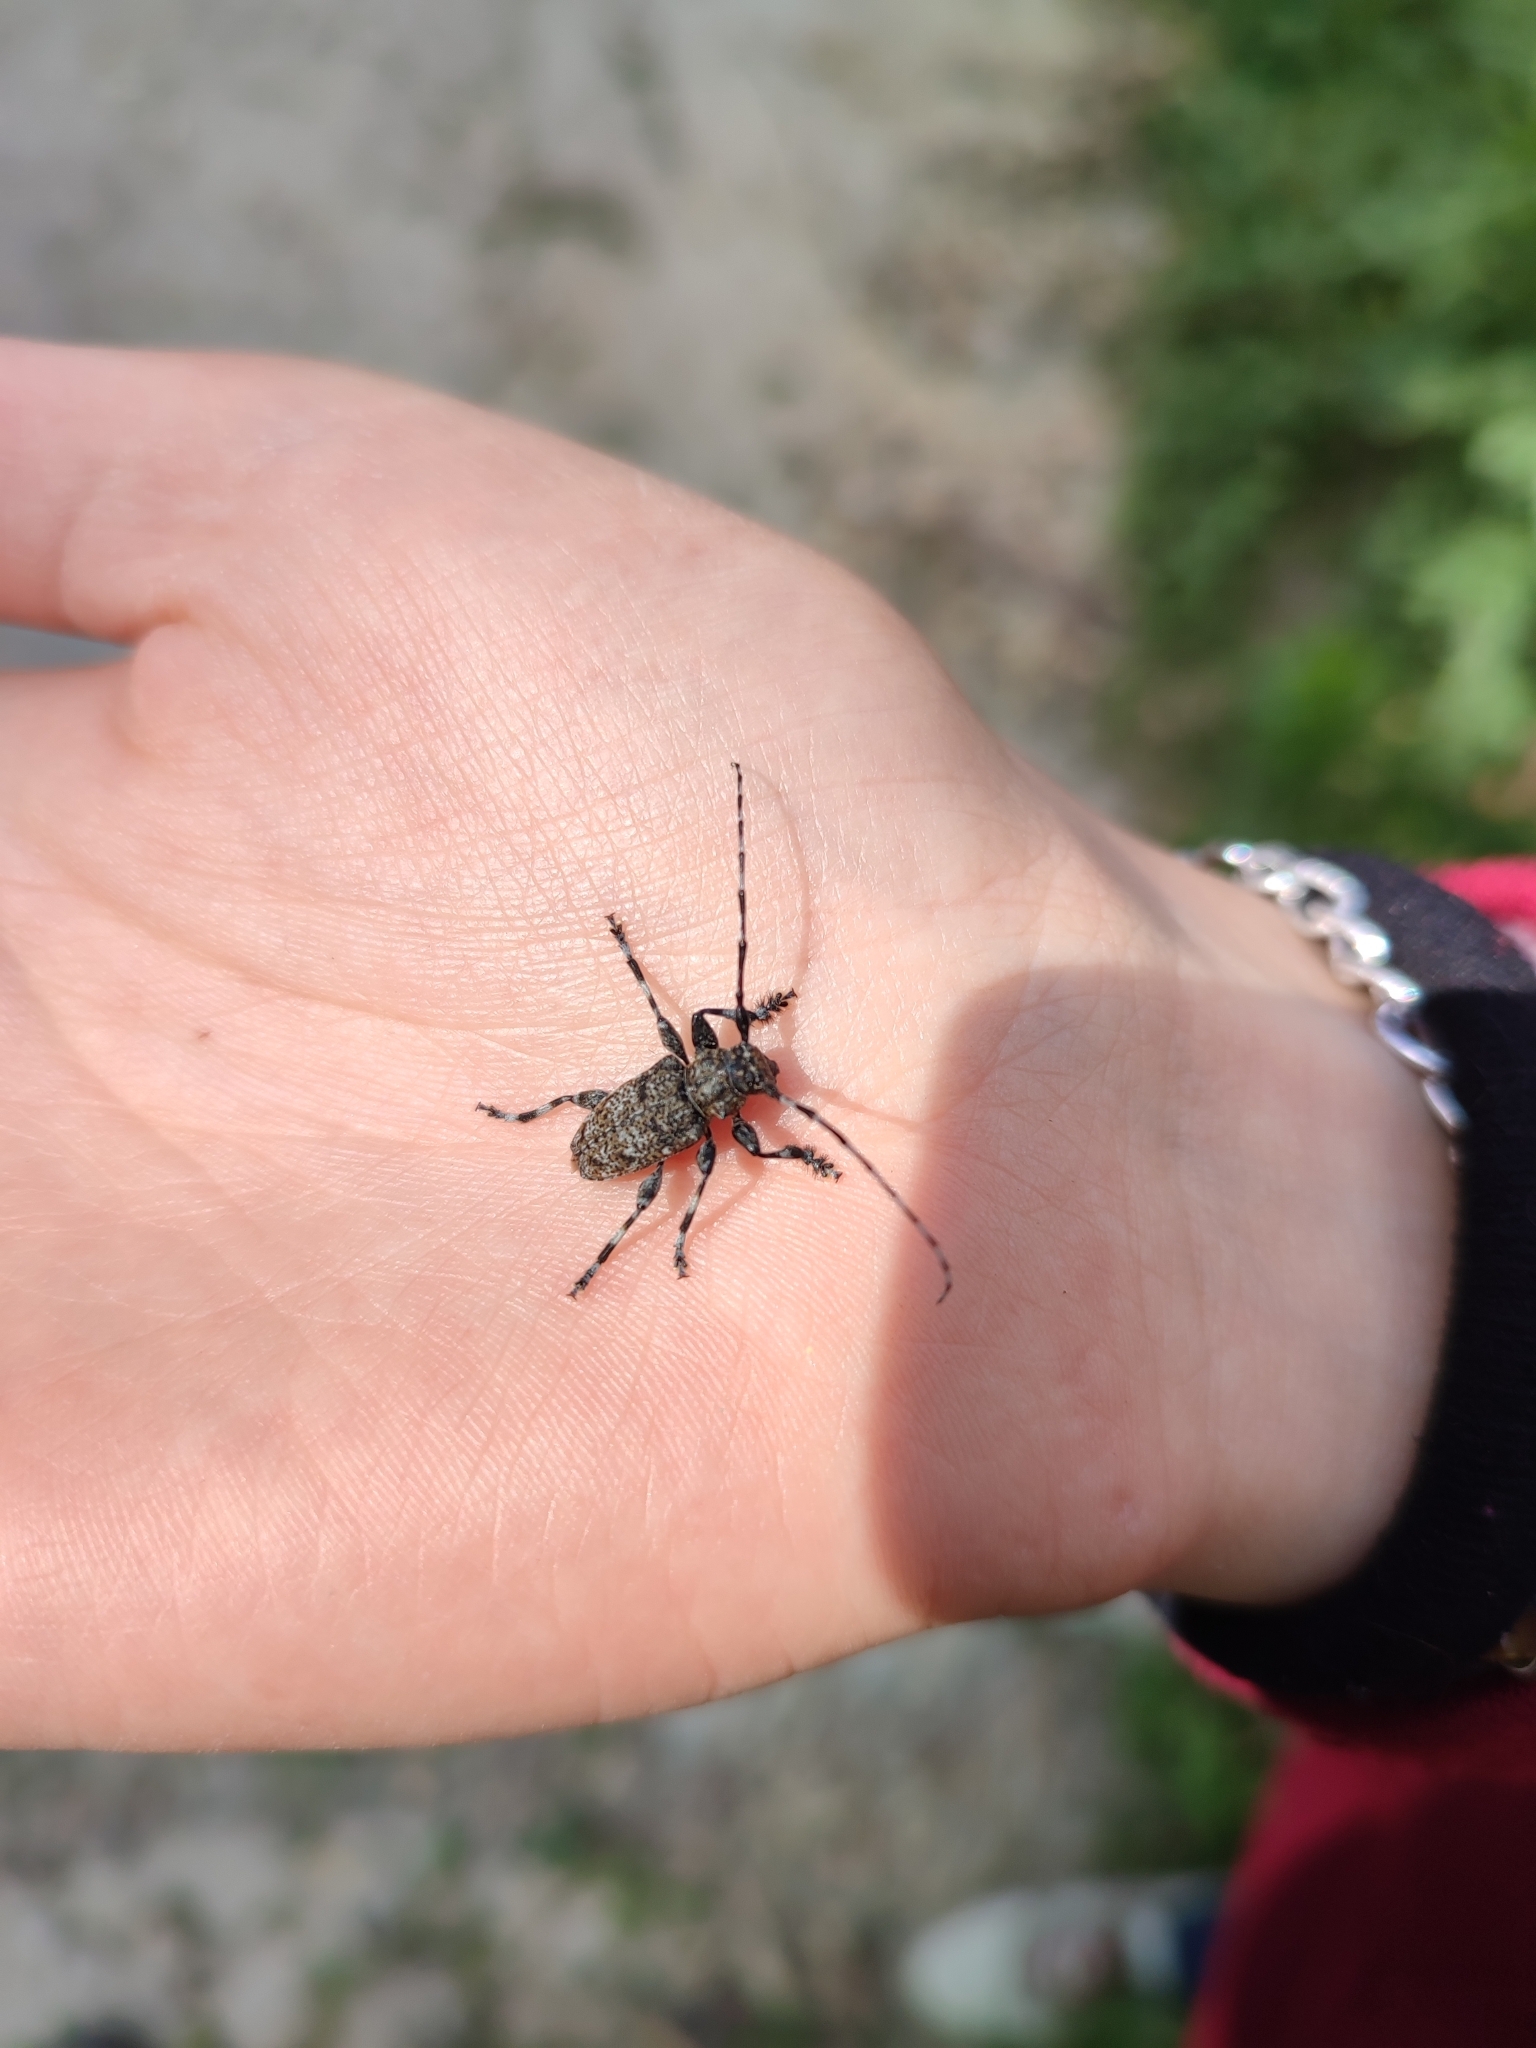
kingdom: Animalia
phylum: Arthropoda
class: Insecta
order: Coleoptera
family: Cerambycidae
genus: Aegomorphus
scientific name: Aegomorphus clavipes
